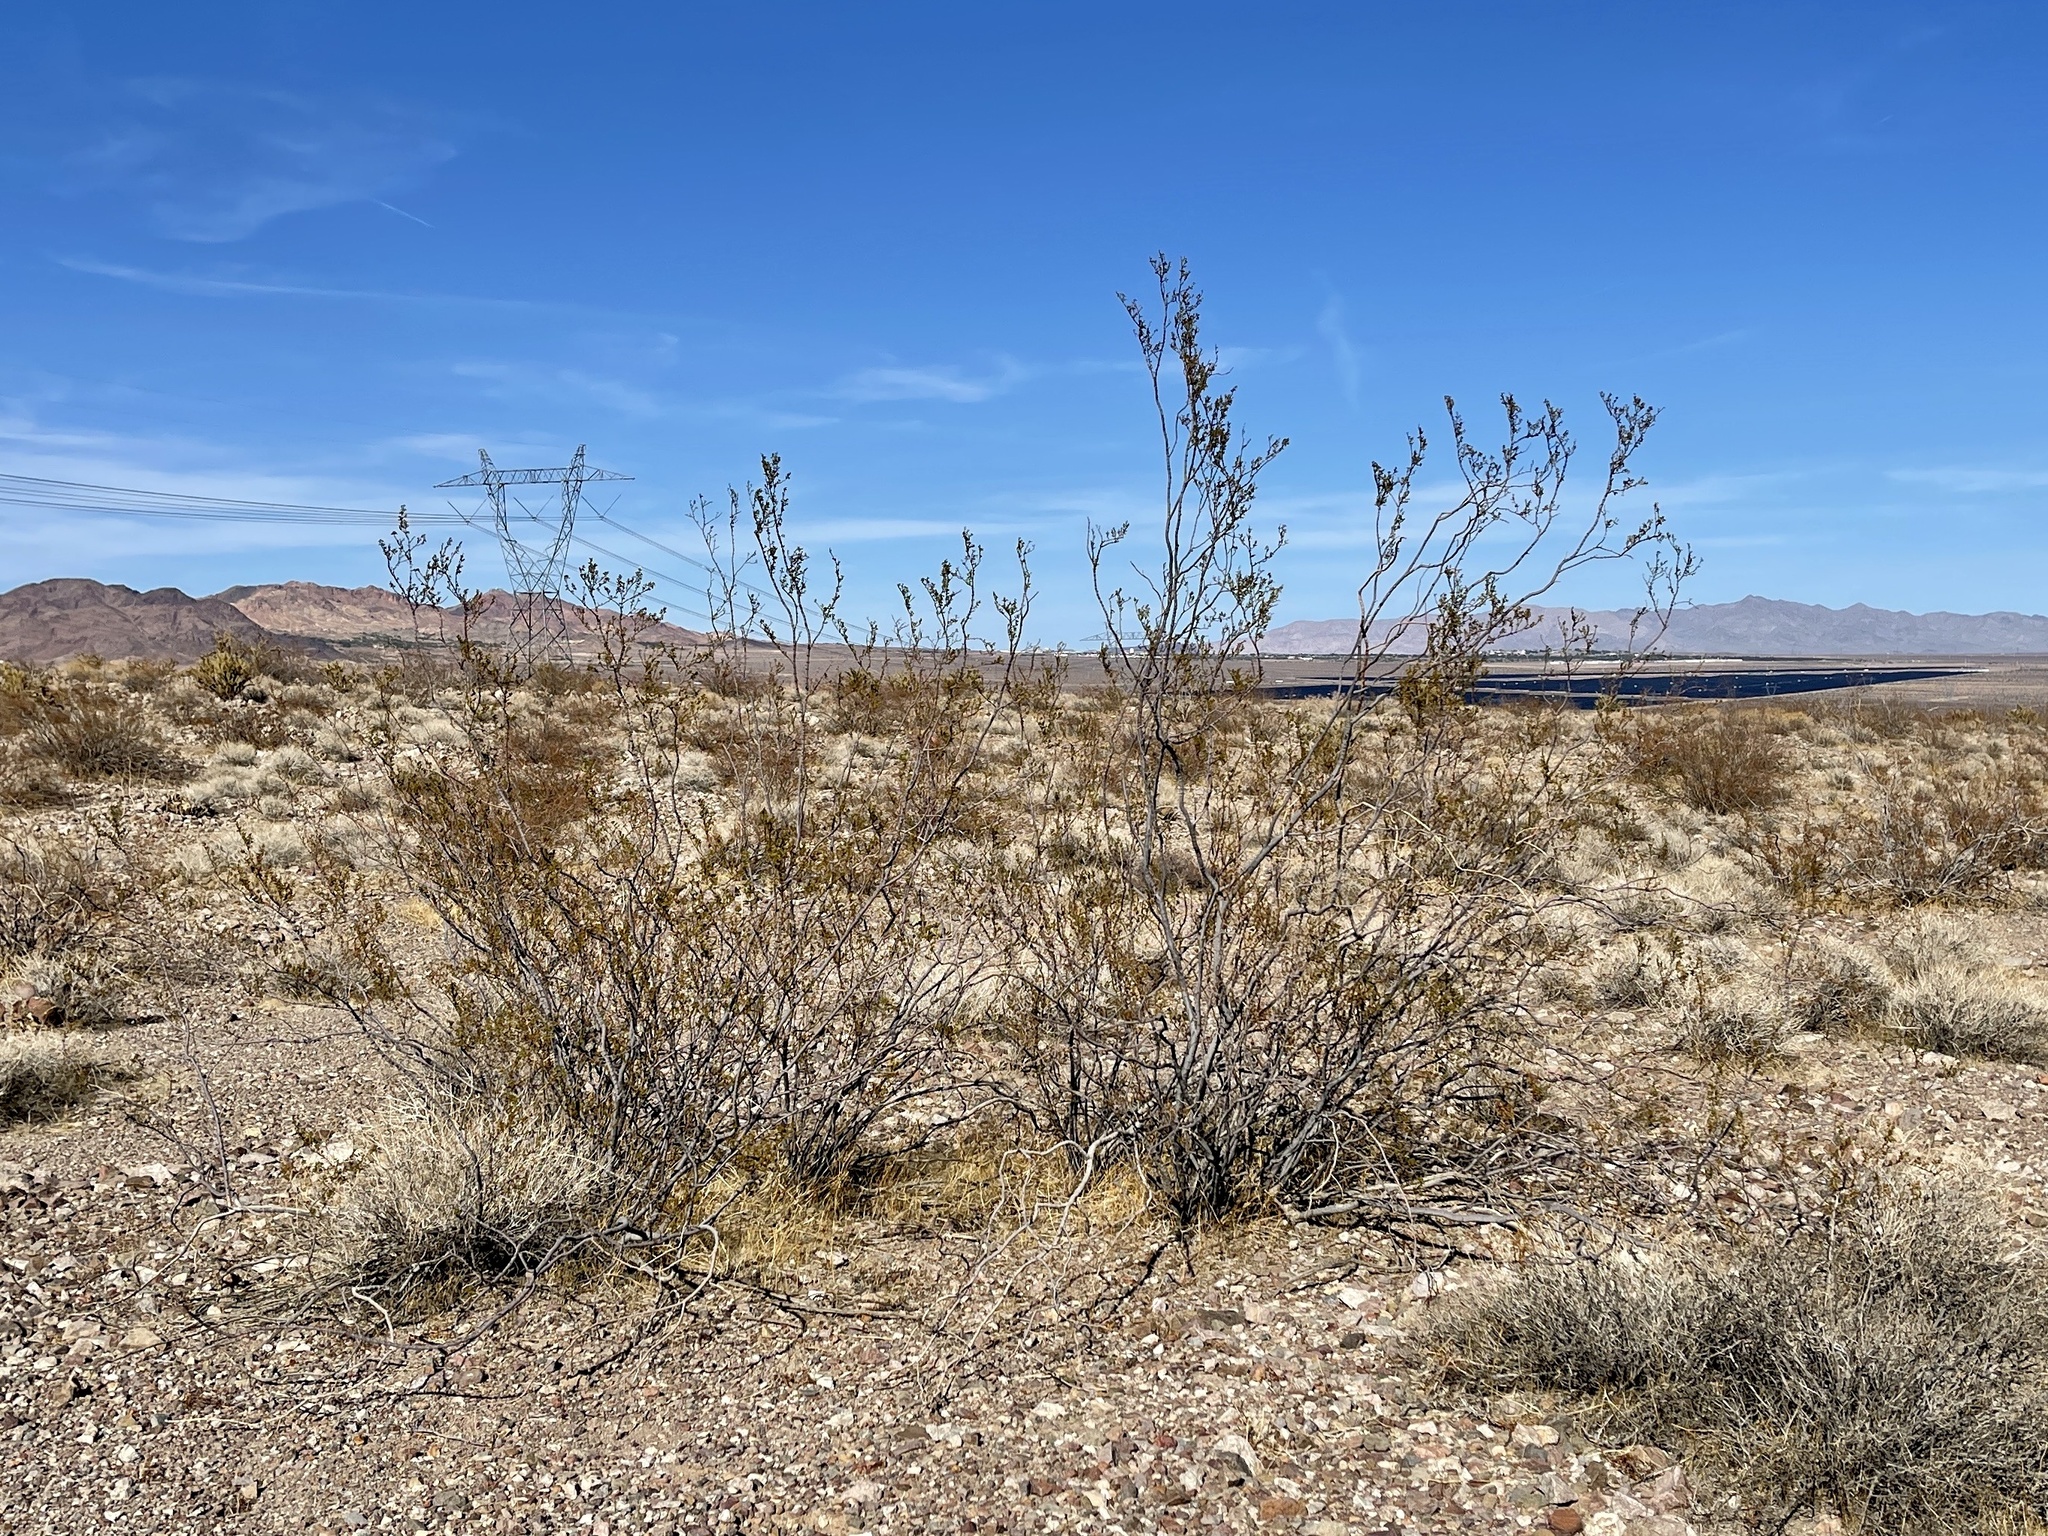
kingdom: Plantae
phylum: Tracheophyta
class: Magnoliopsida
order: Zygophyllales
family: Zygophyllaceae
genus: Larrea
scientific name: Larrea tridentata
